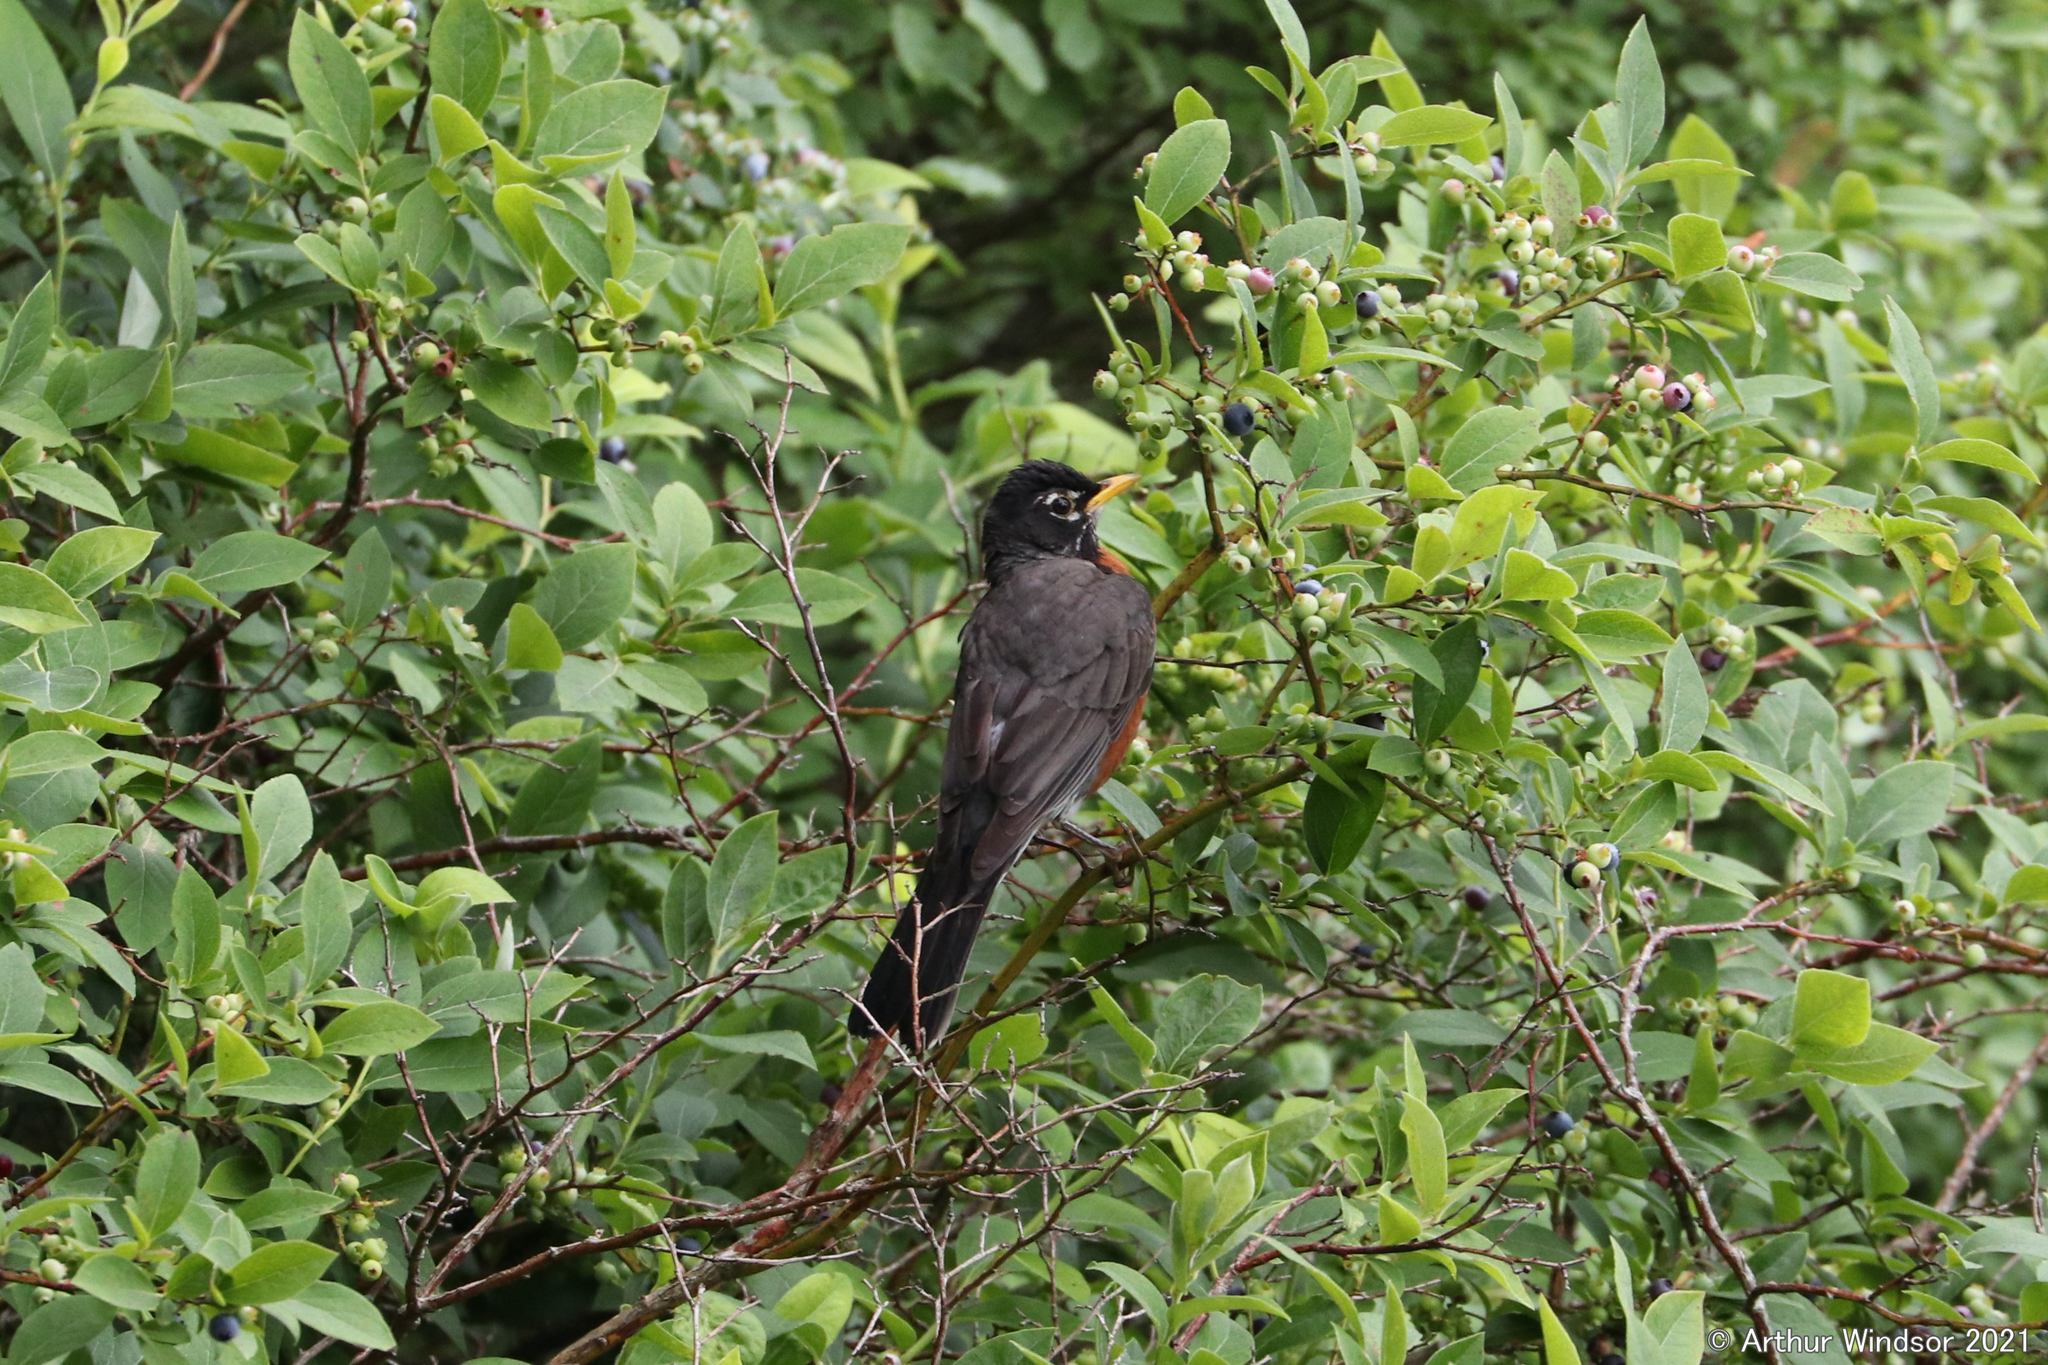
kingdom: Animalia
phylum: Chordata
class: Aves
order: Passeriformes
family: Turdidae
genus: Turdus
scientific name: Turdus migratorius
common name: American robin
